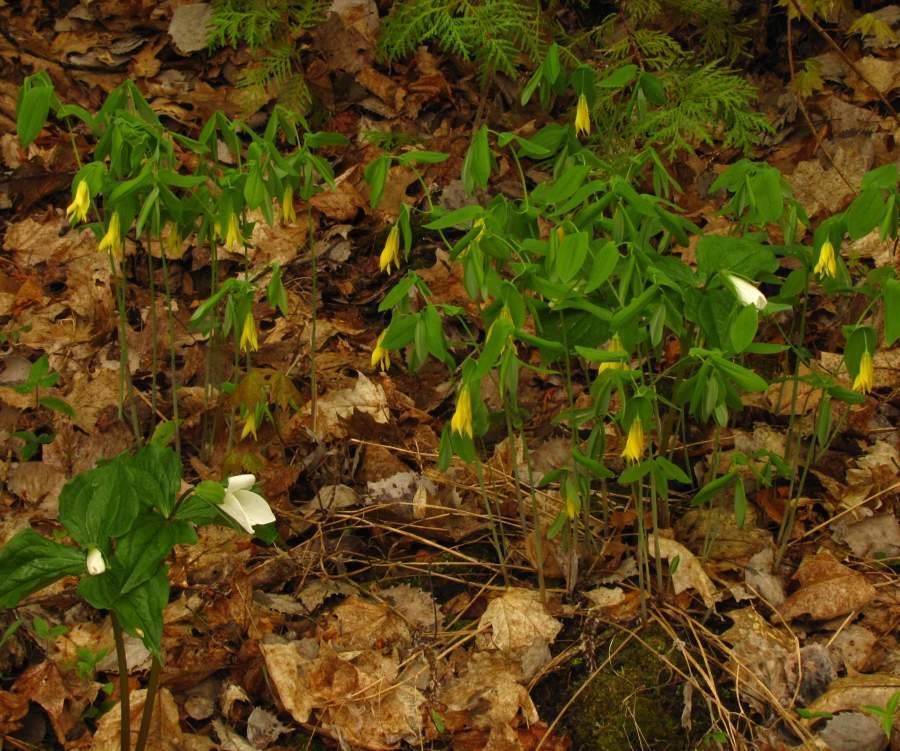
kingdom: Plantae
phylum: Tracheophyta
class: Liliopsida
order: Liliales
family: Colchicaceae
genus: Uvularia
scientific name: Uvularia grandiflora
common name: Bellwort
